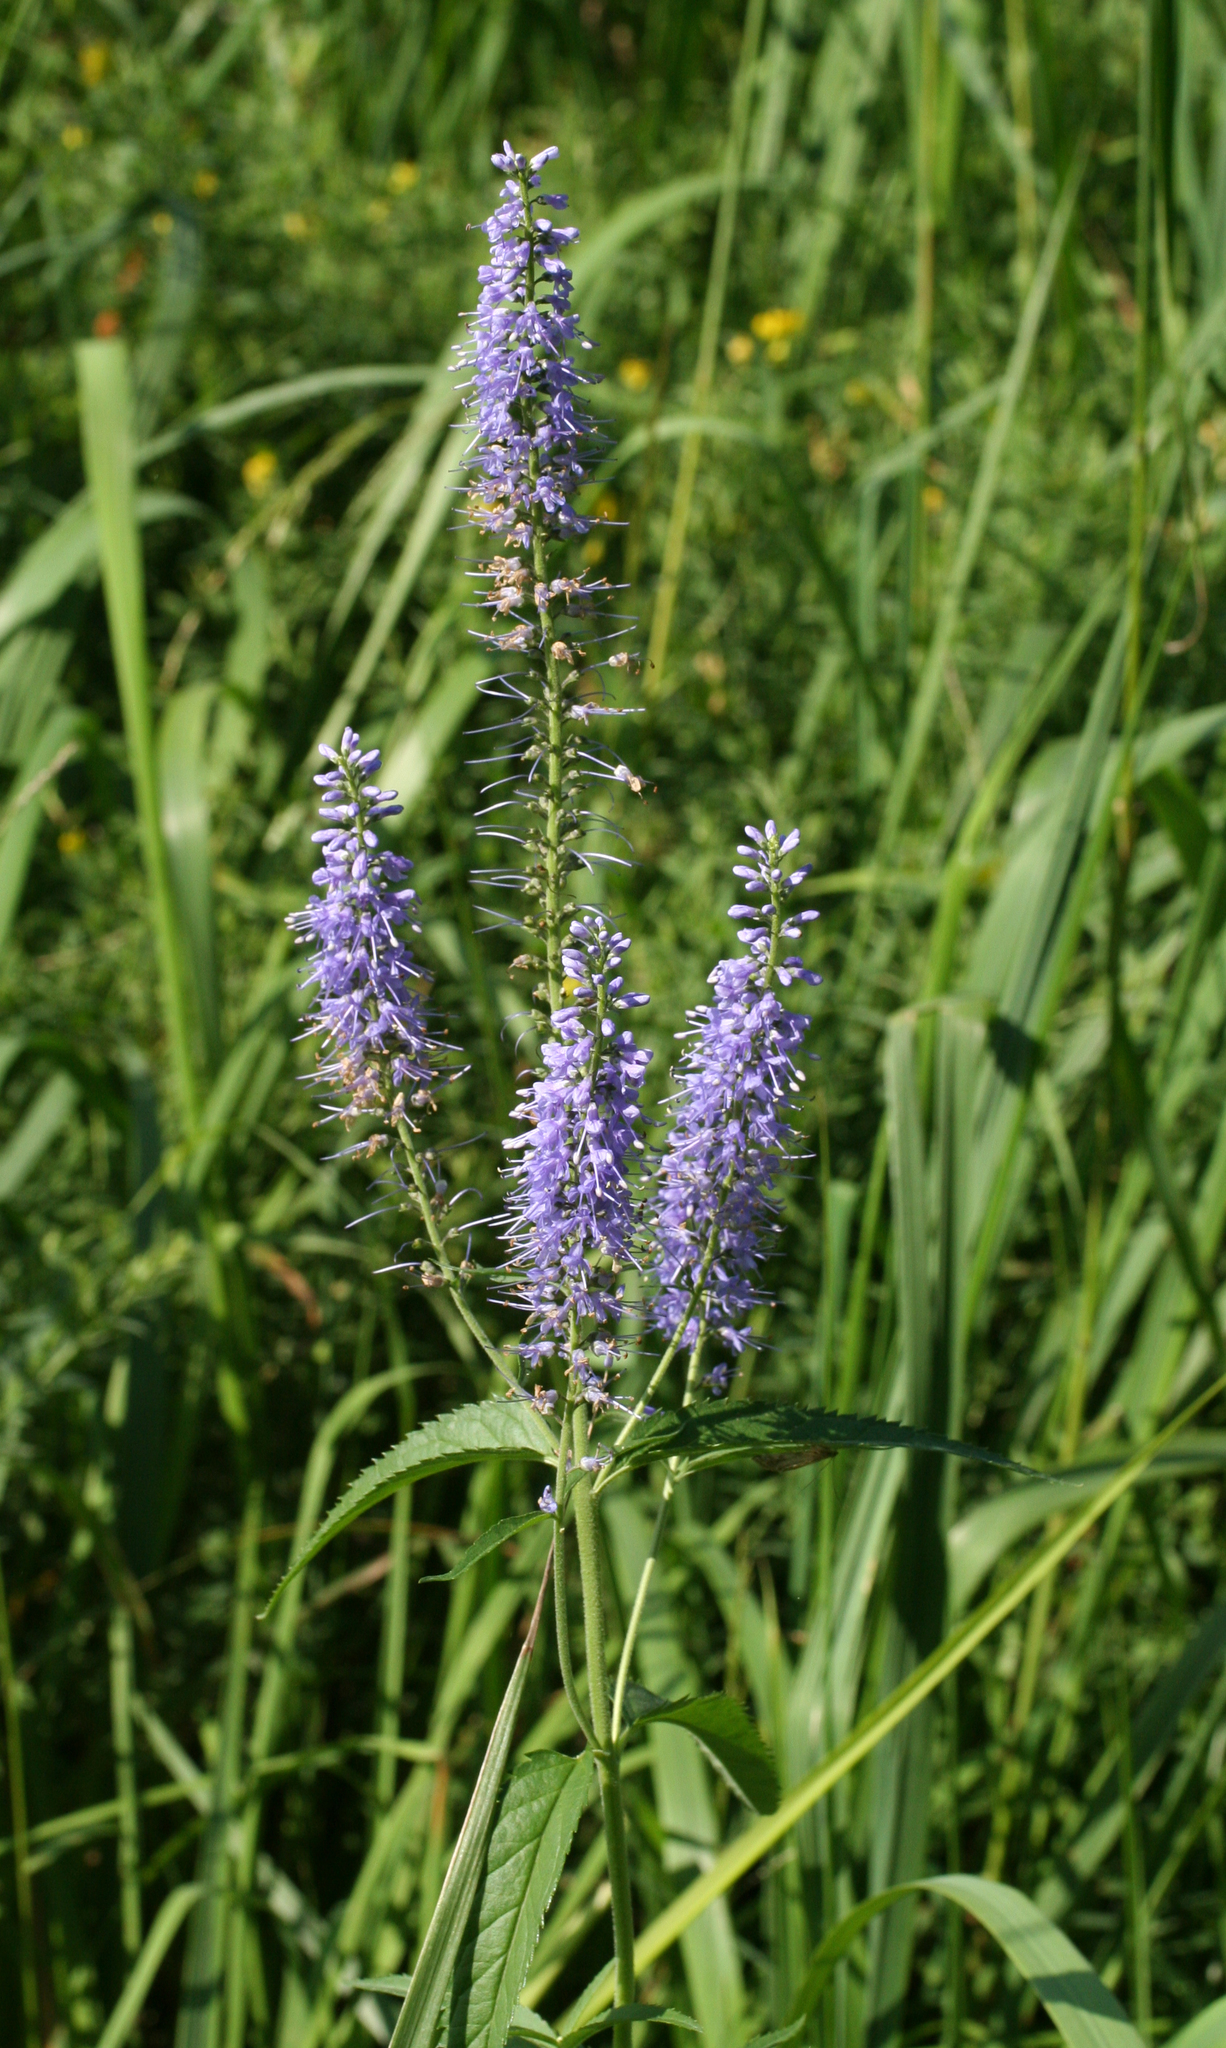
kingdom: Plantae
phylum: Tracheophyta
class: Magnoliopsida
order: Lamiales
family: Plantaginaceae
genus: Veronica
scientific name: Veronica longifolia
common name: Garden speedwell
